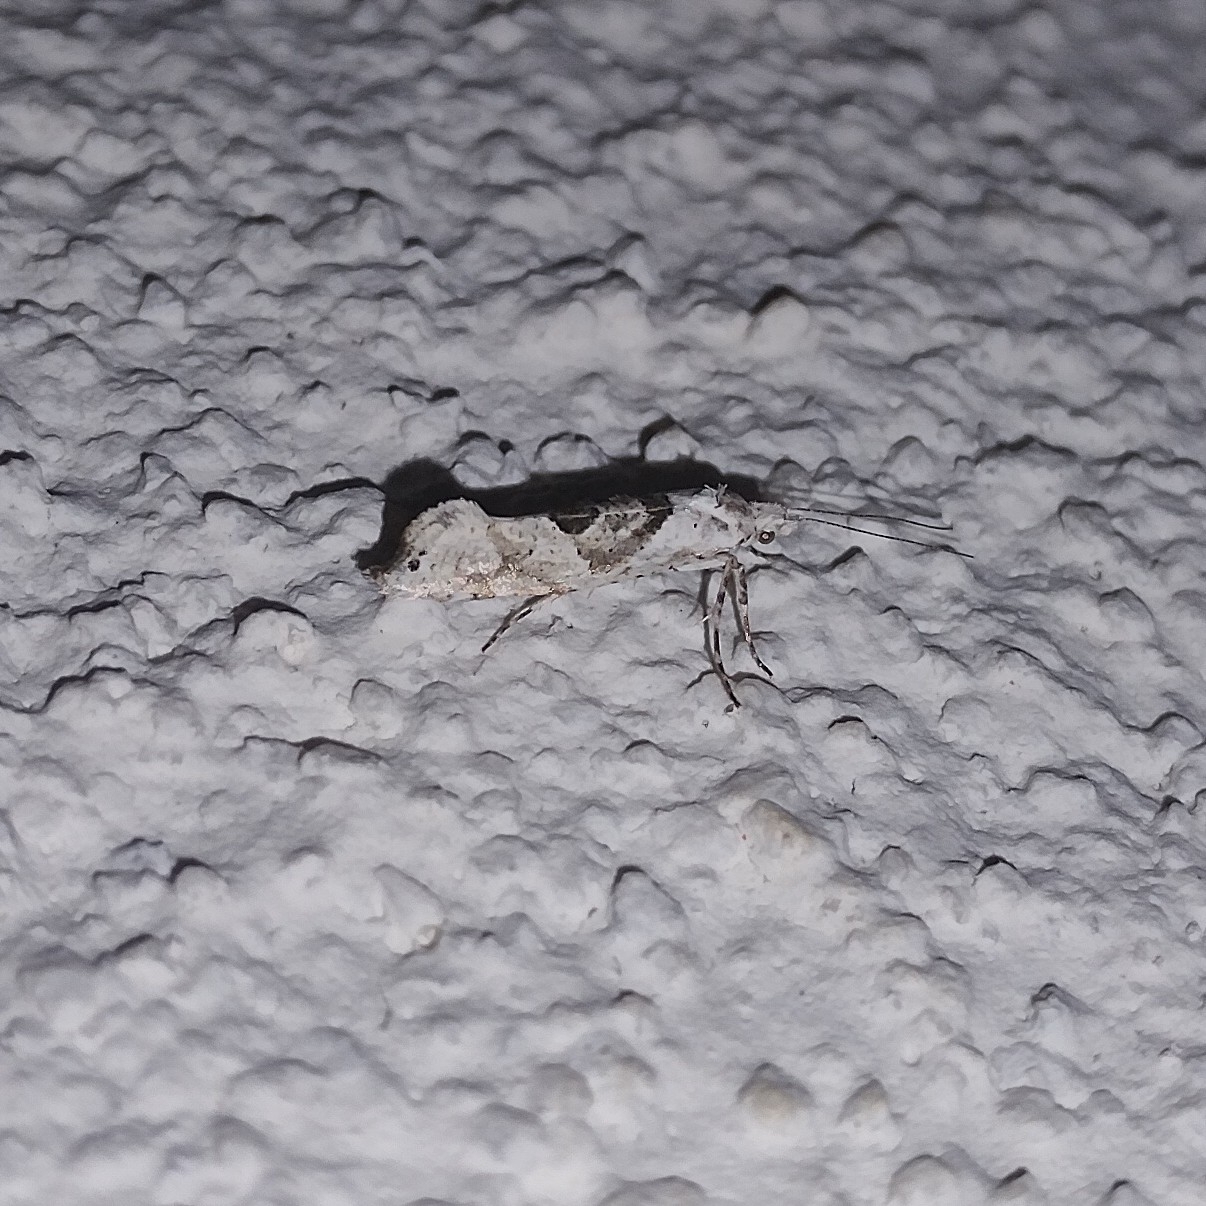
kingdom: Animalia
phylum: Arthropoda
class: Insecta
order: Lepidoptera
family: Plutellidae
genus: Ypsolophus
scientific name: Ypsolophus asperella
